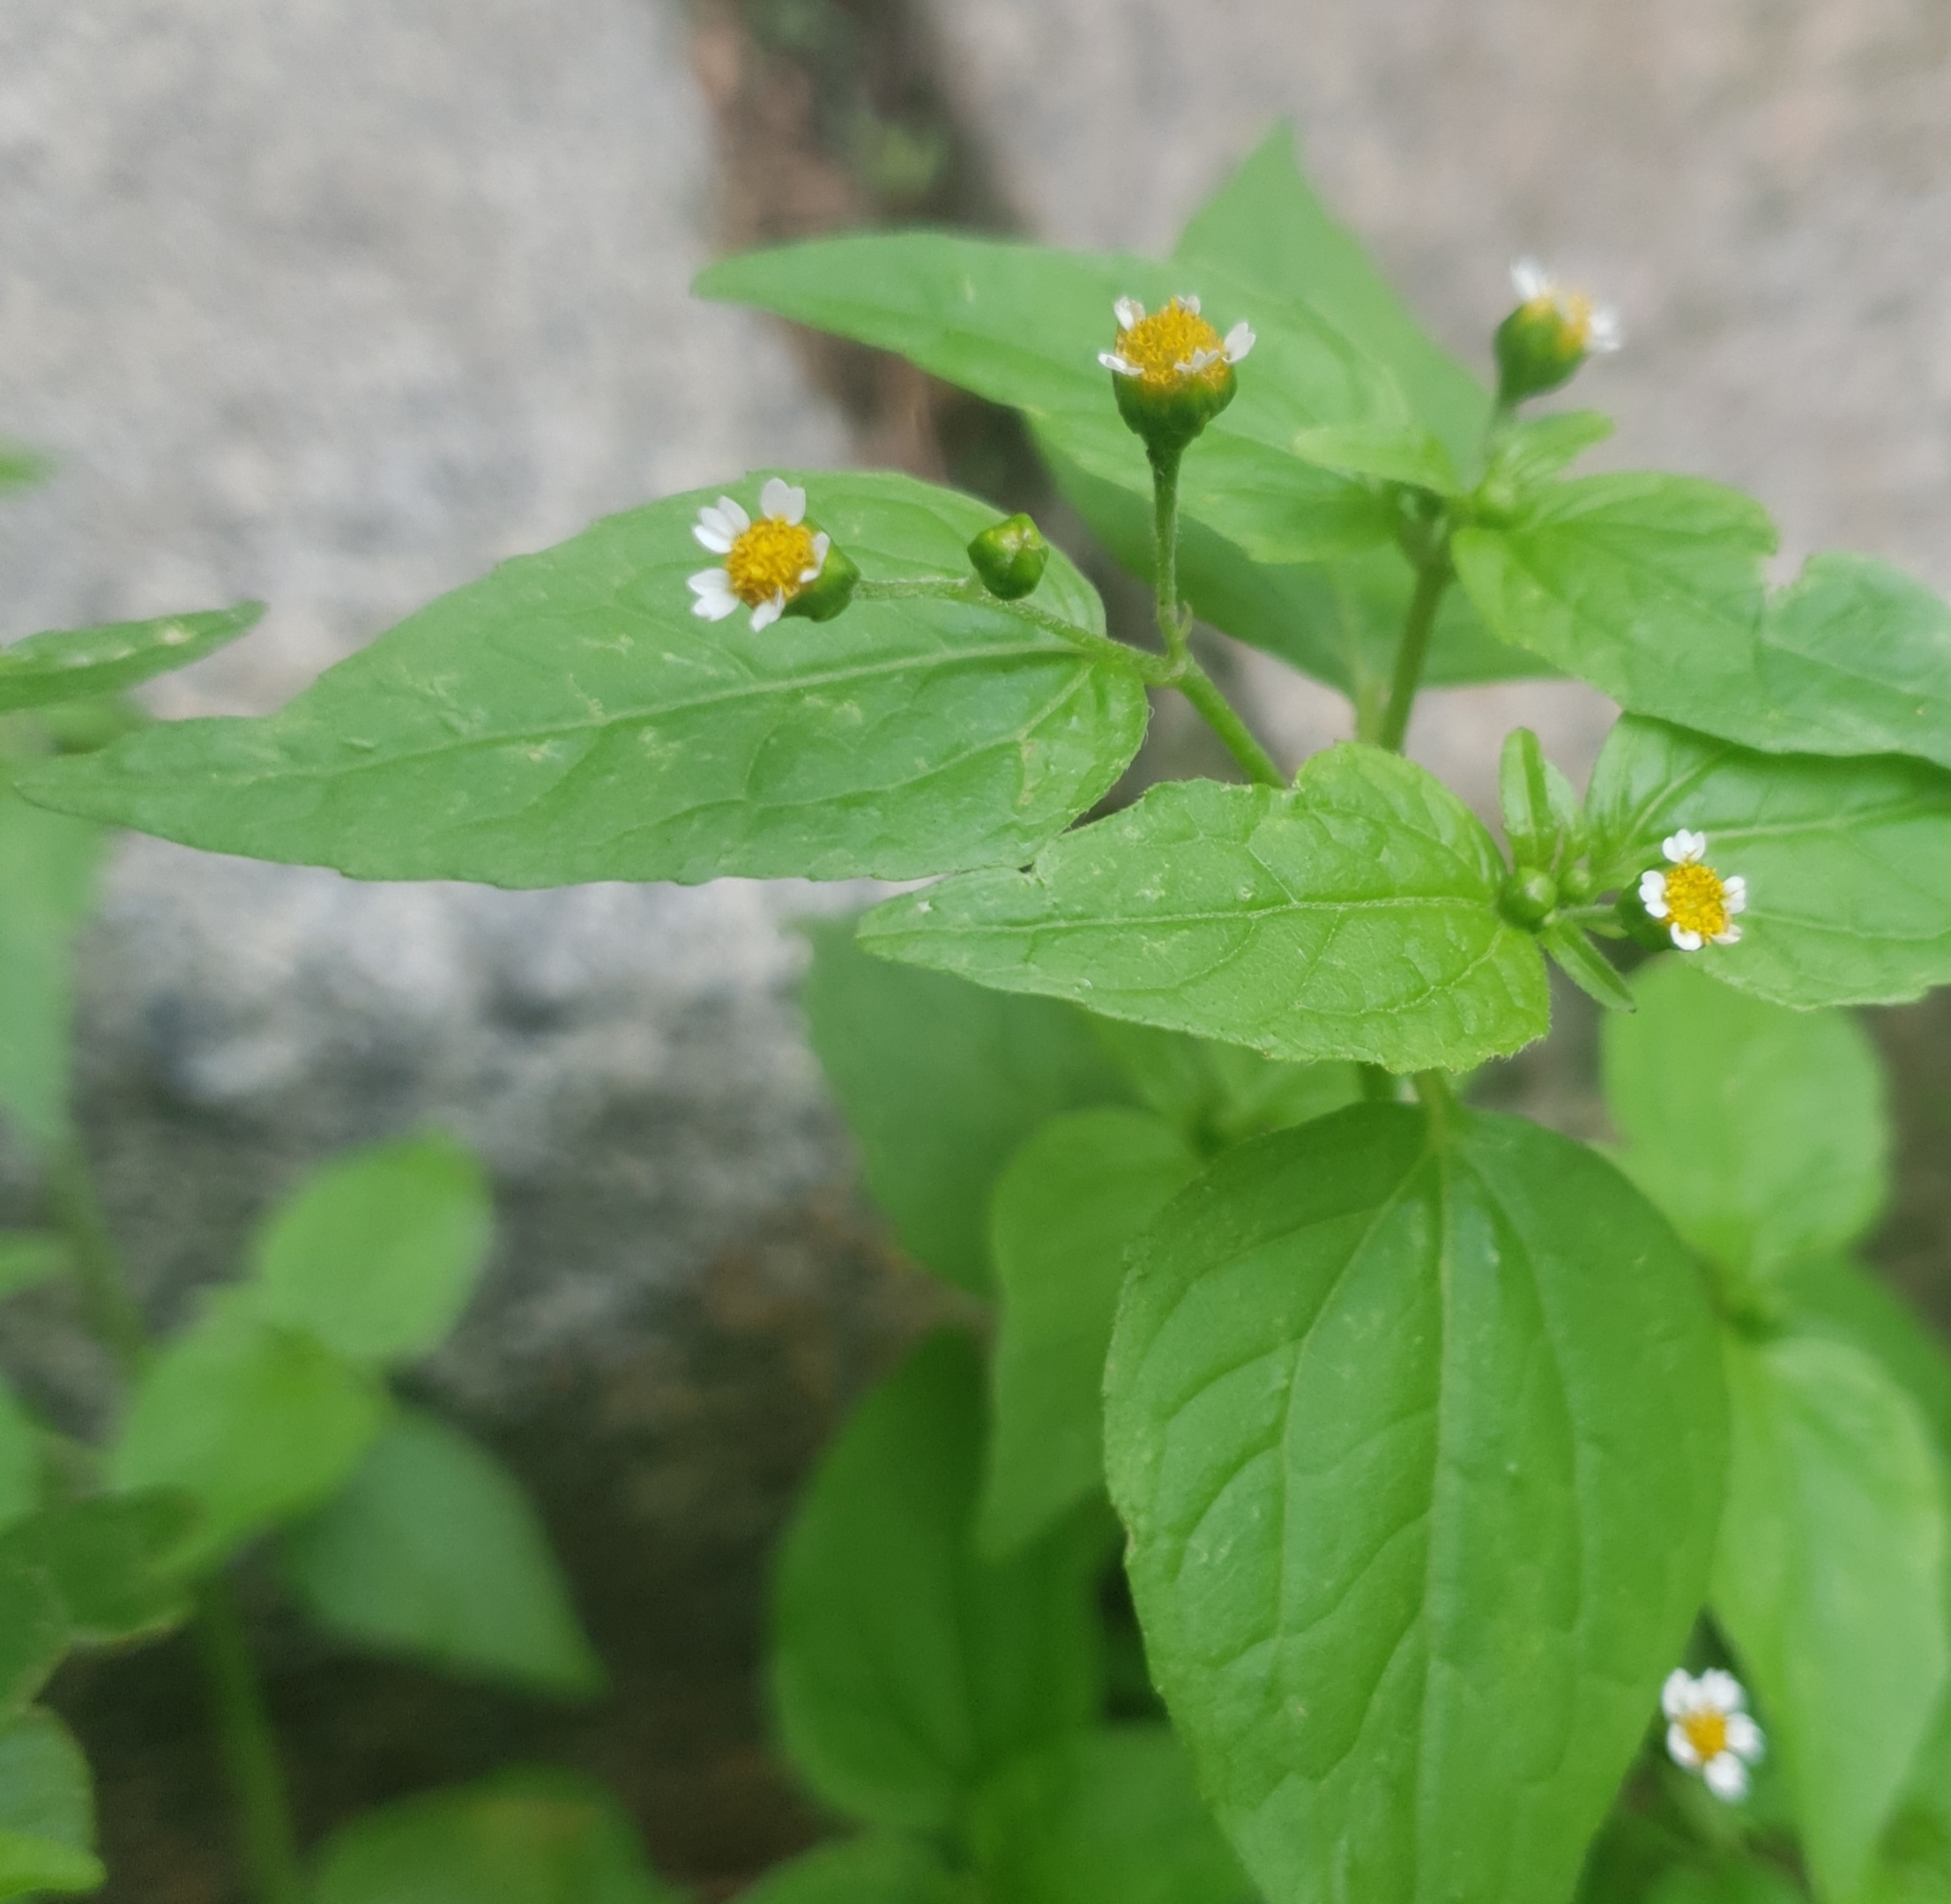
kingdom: Plantae
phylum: Tracheophyta
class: Magnoliopsida
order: Asterales
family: Asteraceae
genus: Galinsoga
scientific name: Galinsoga parviflora
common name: Gallant soldier
